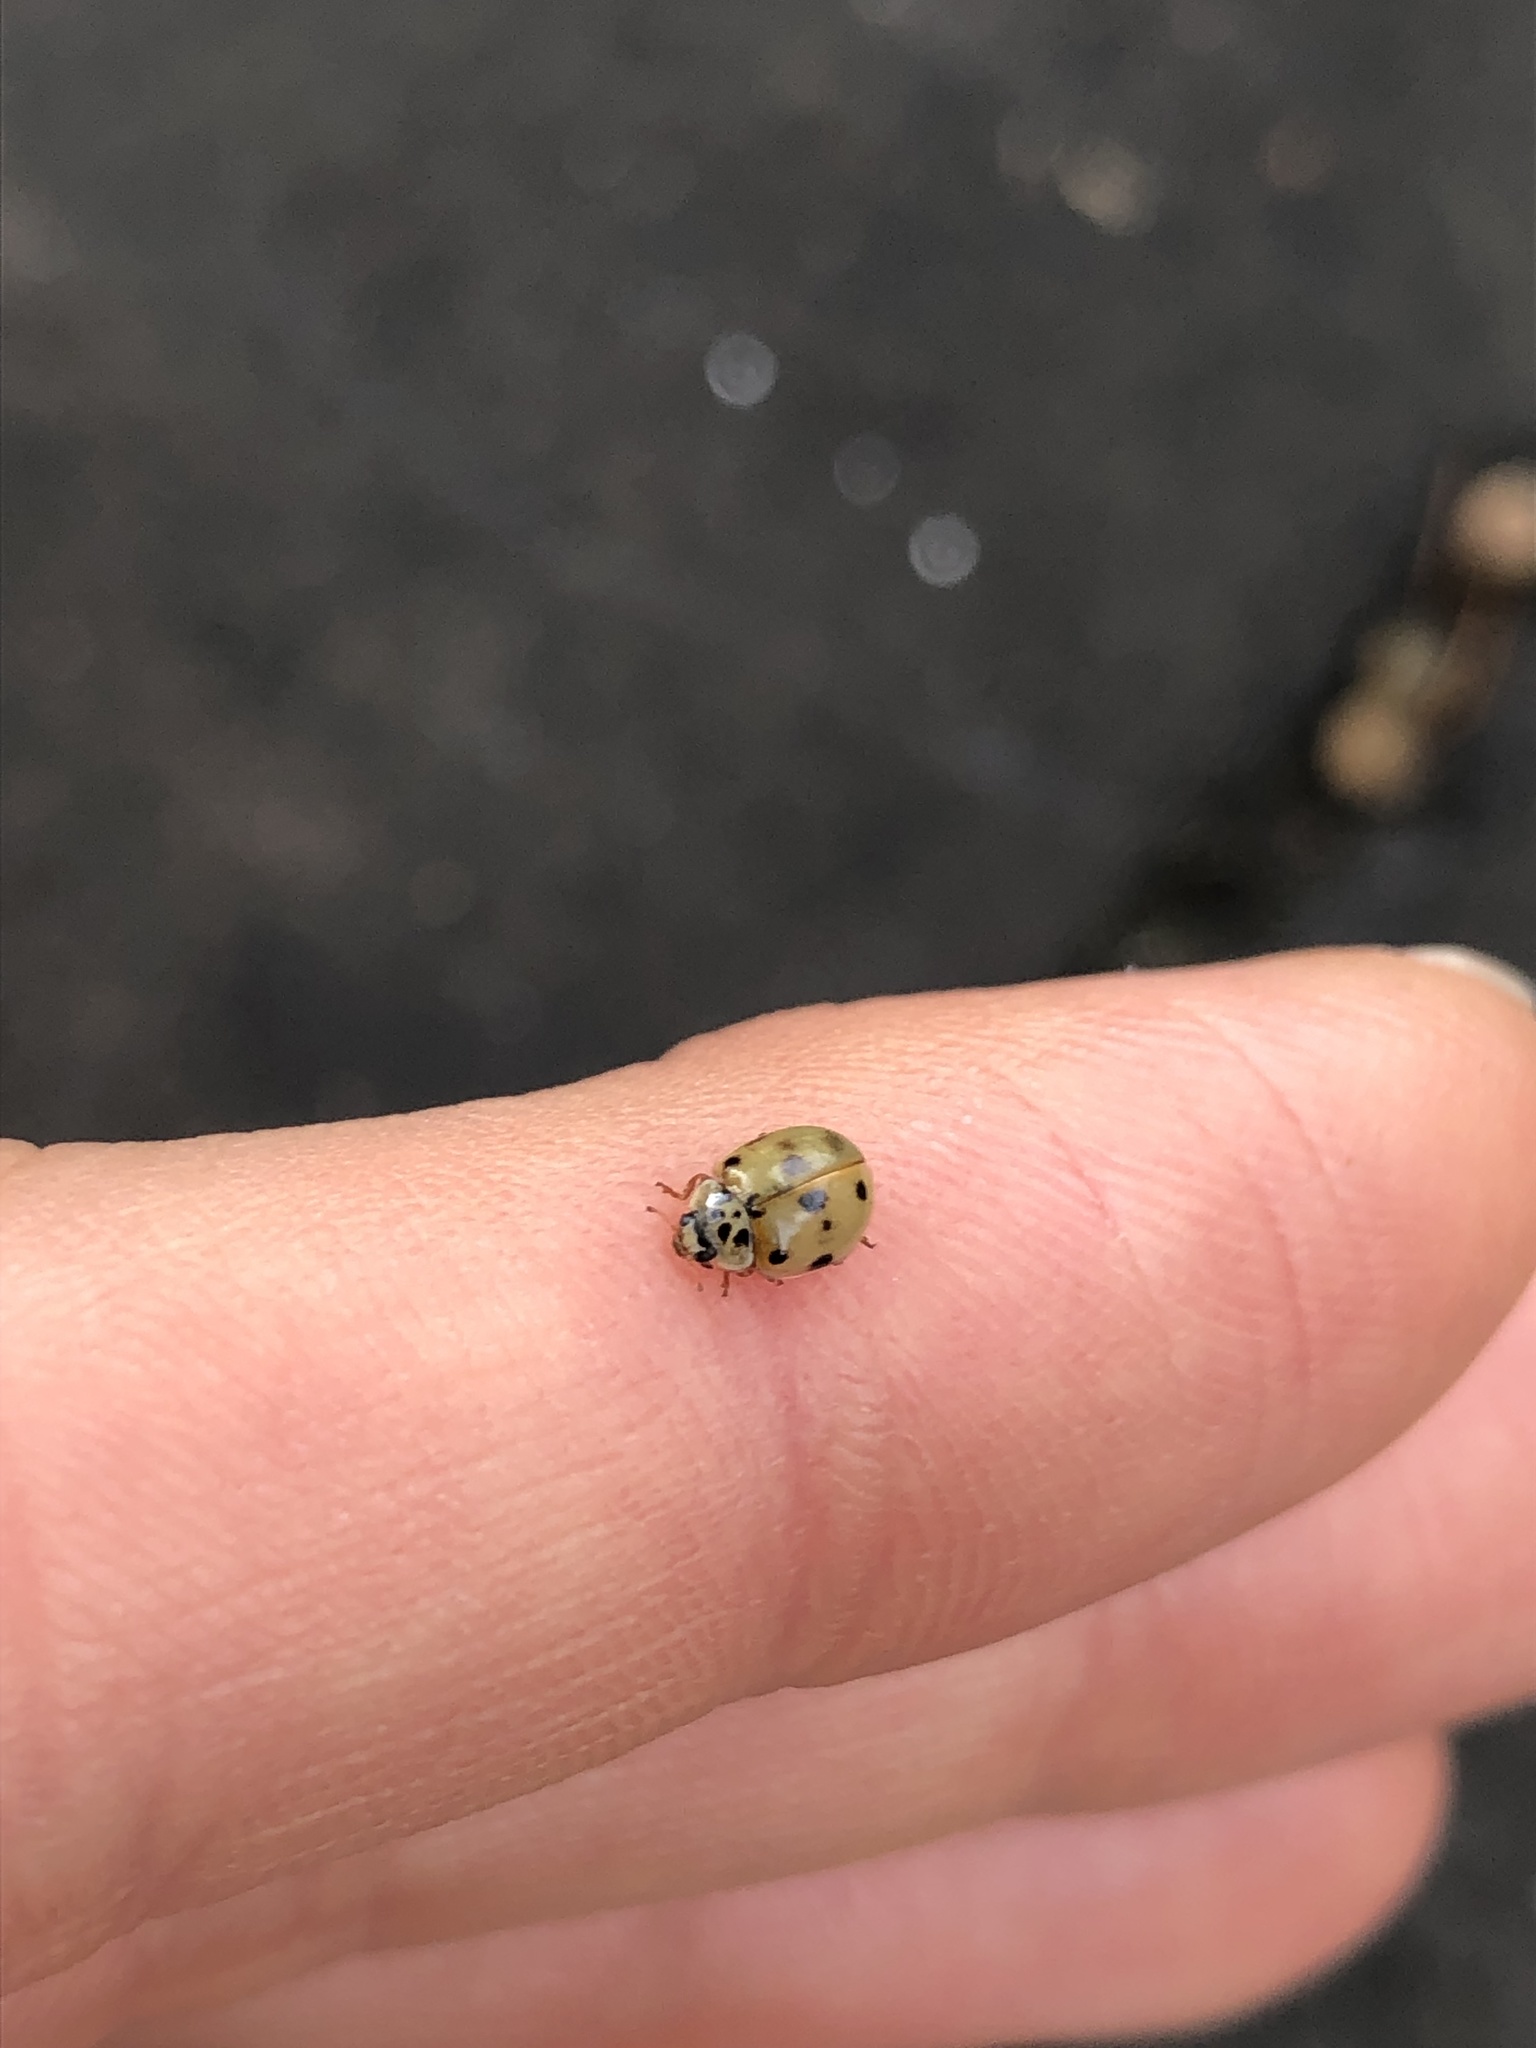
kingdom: Animalia
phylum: Arthropoda
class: Insecta
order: Coleoptera
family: Coccinellidae
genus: Adalia
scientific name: Adalia decempunctata
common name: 10-spot ladybird
